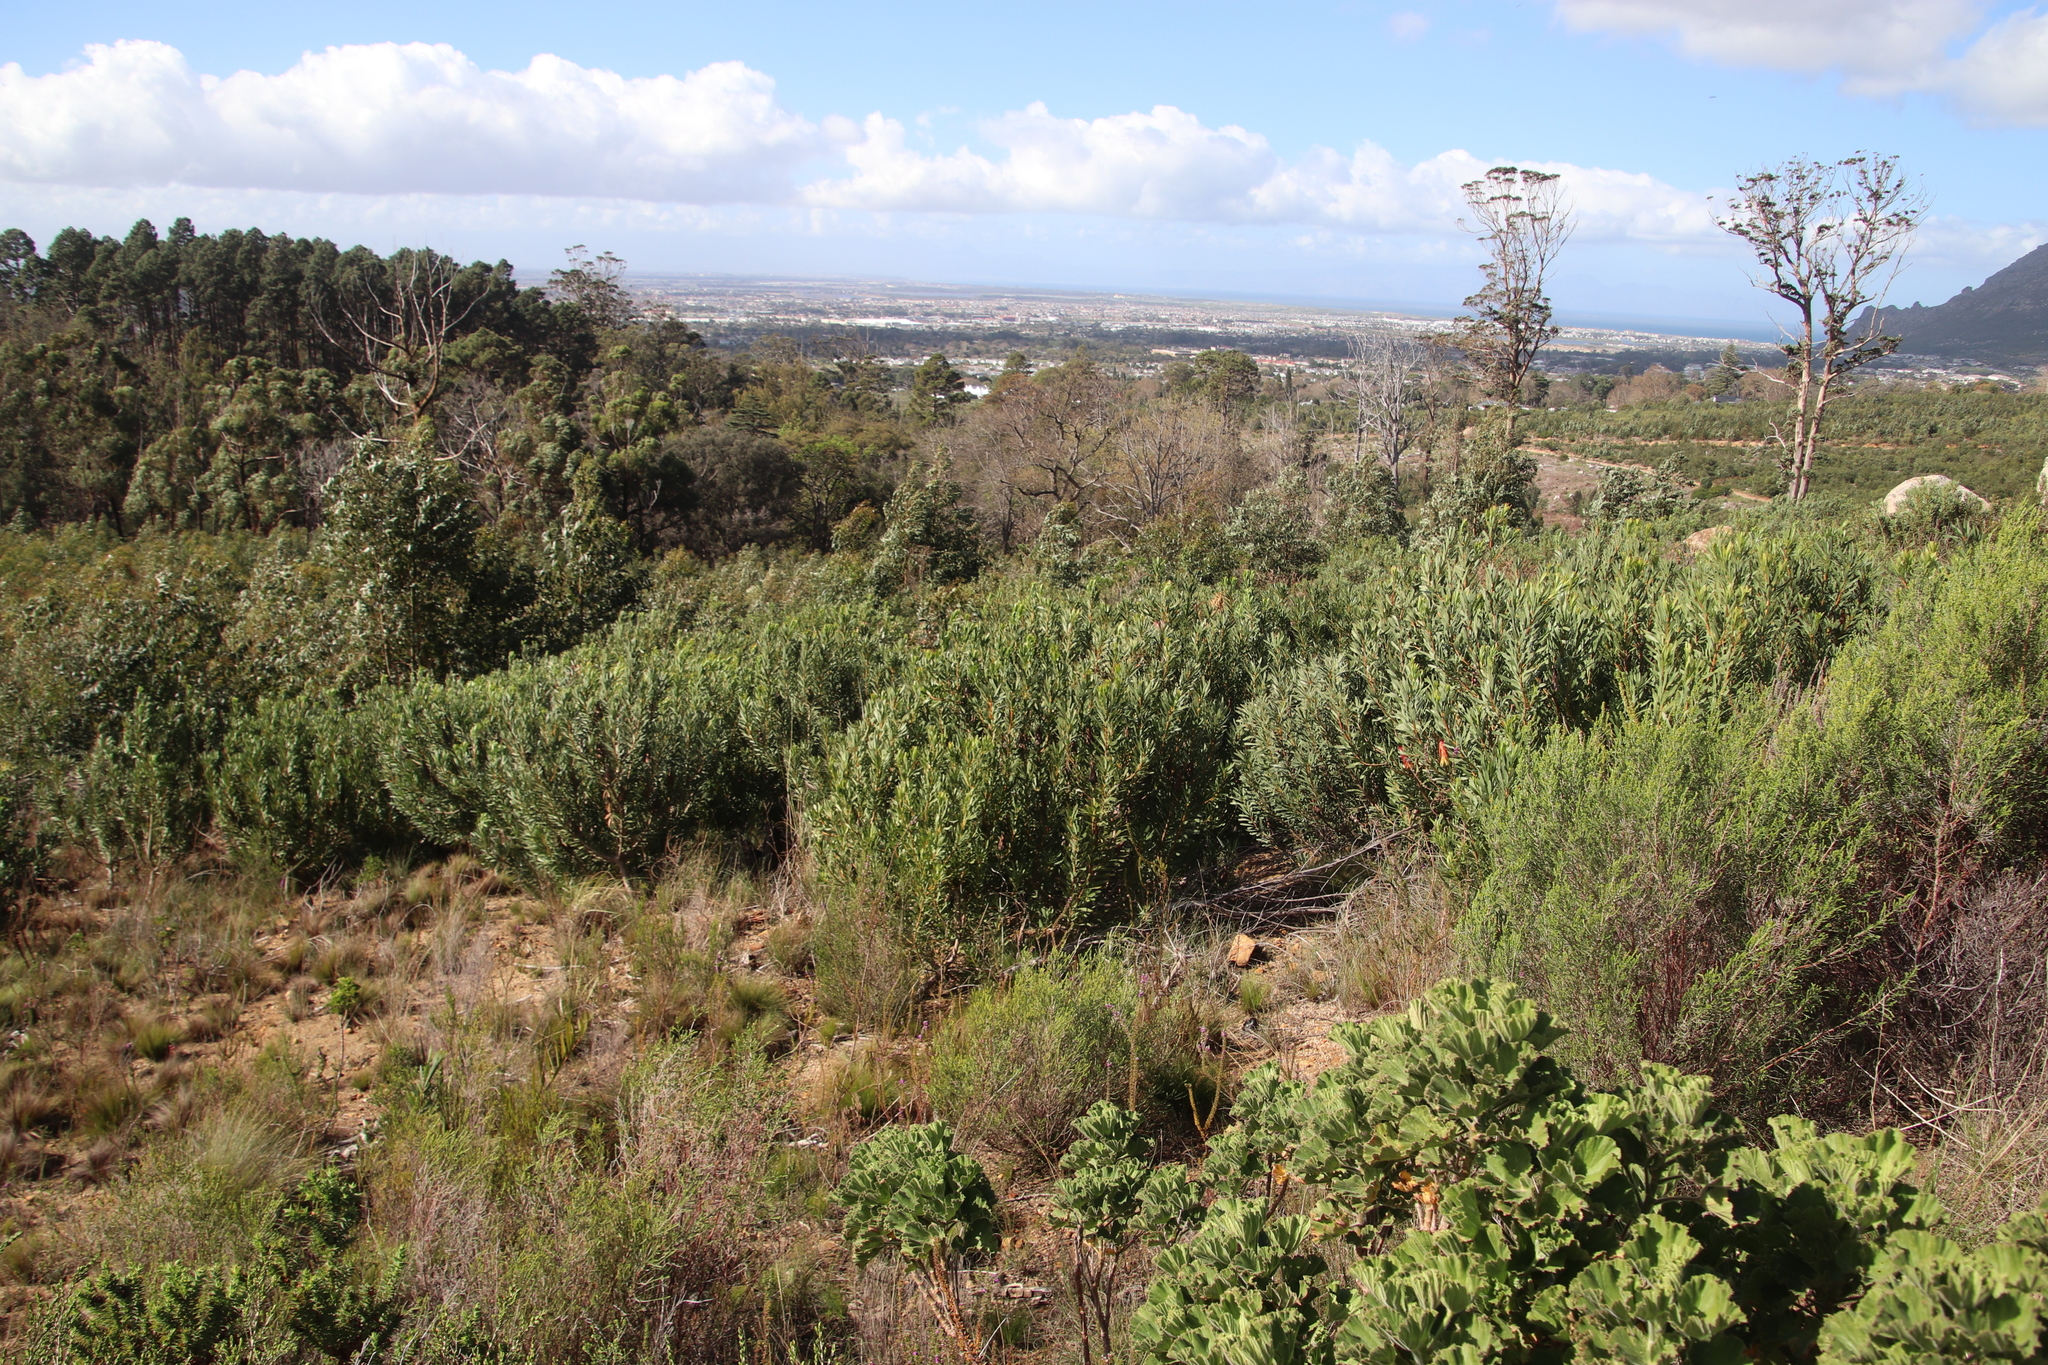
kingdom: Plantae
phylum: Tracheophyta
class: Magnoliopsida
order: Proteales
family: Proteaceae
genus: Protea
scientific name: Protea repens
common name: Sugarbush
